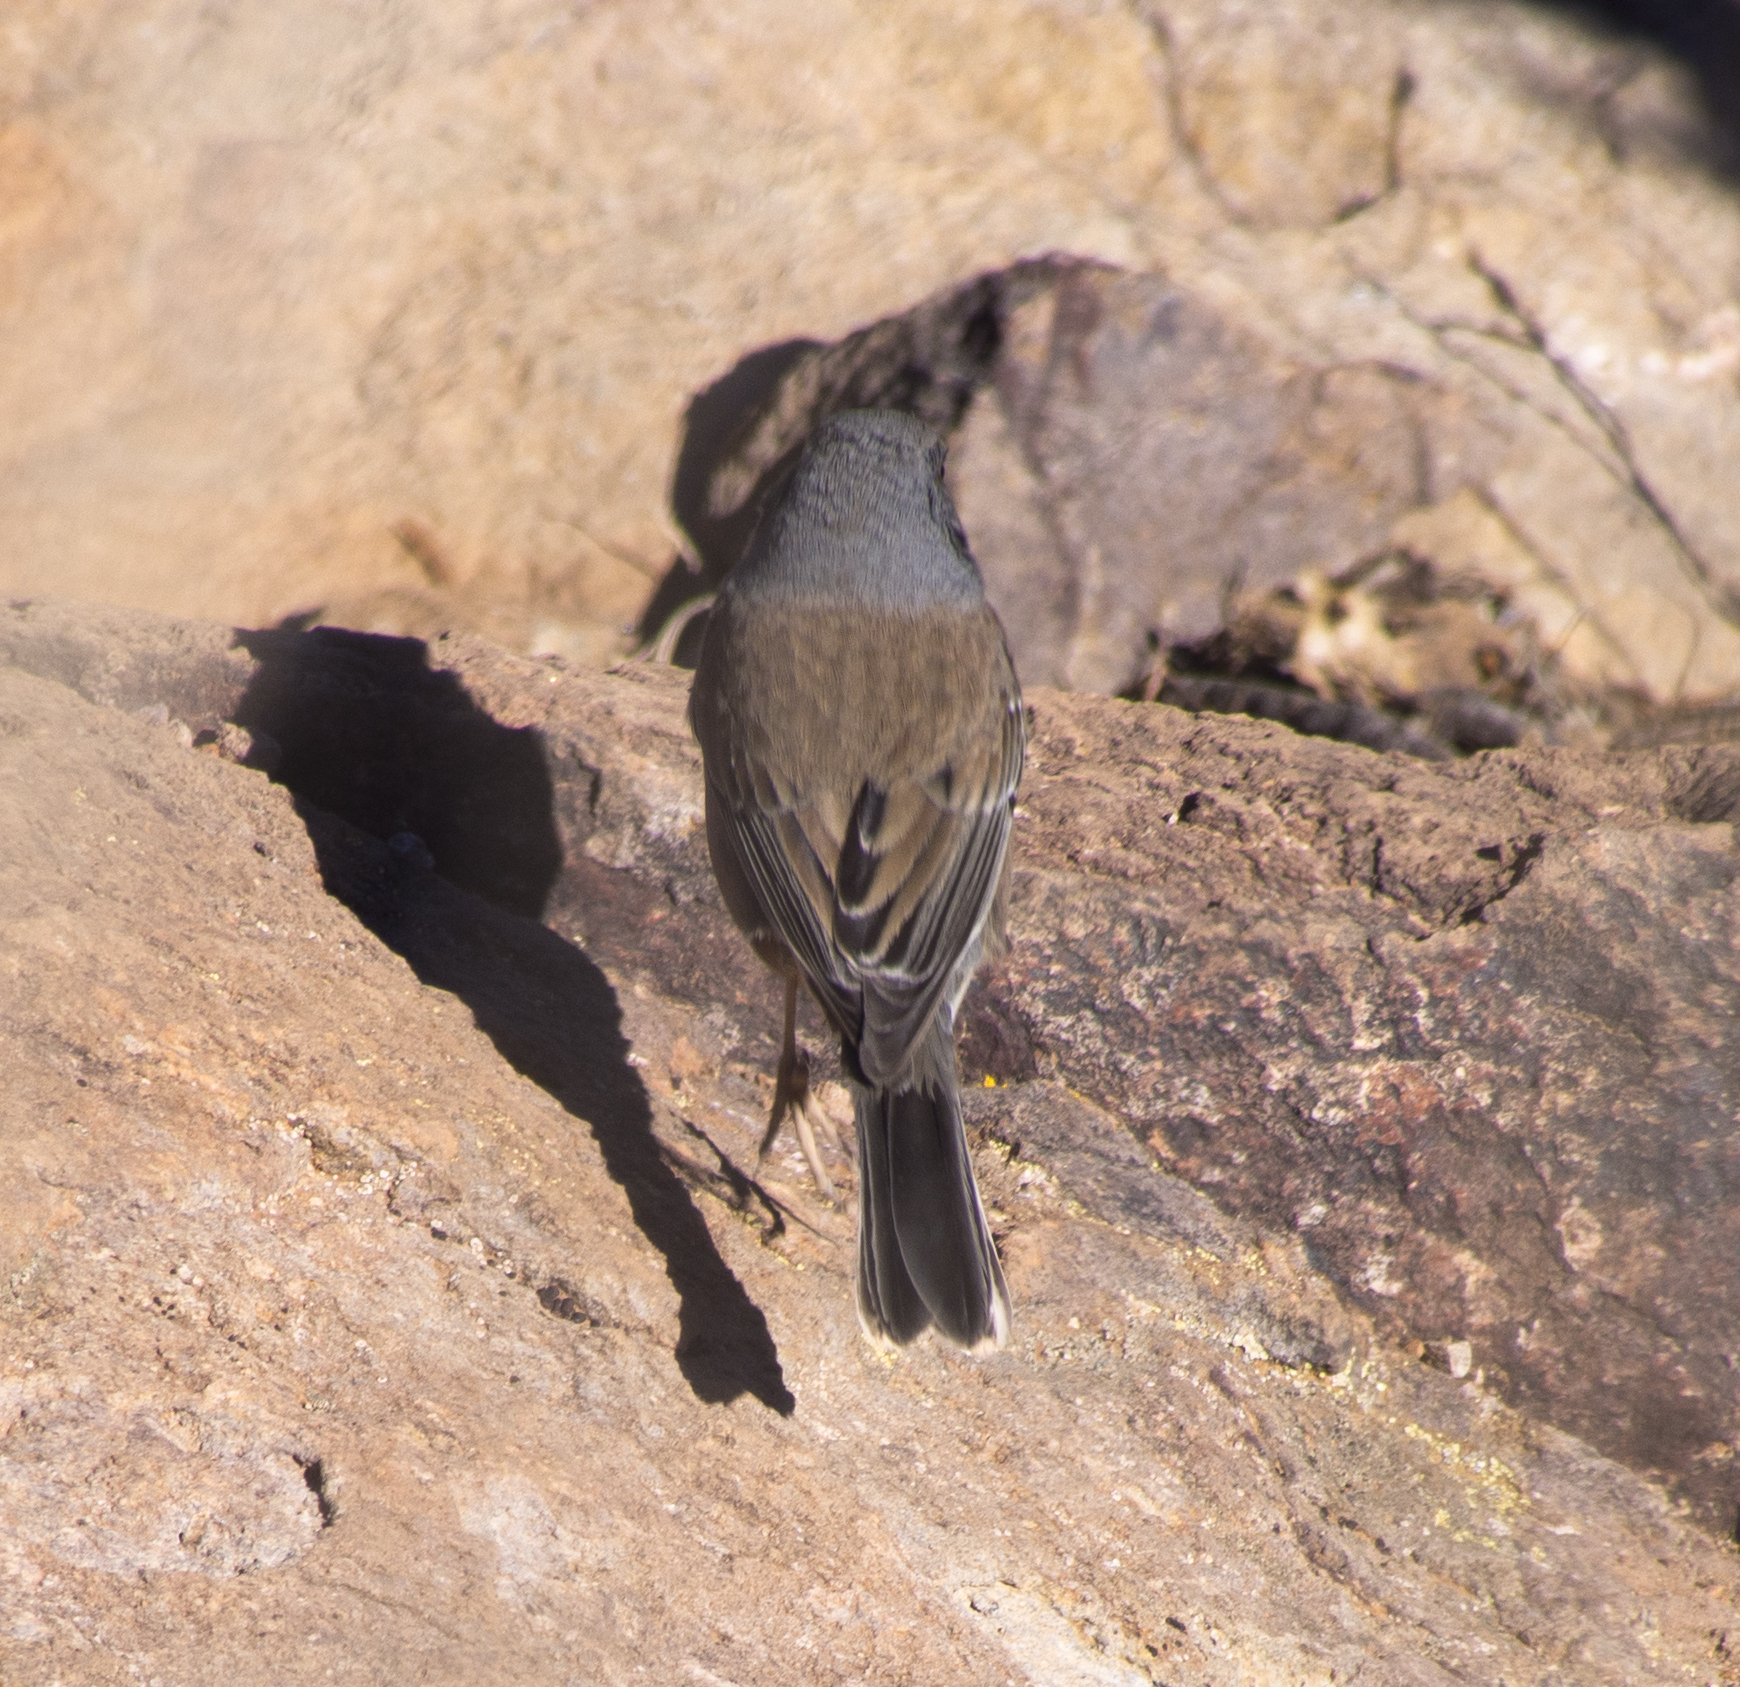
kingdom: Animalia
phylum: Chordata
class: Aves
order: Passeriformes
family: Passerellidae
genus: Junco
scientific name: Junco hyemalis
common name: Dark-eyed junco
